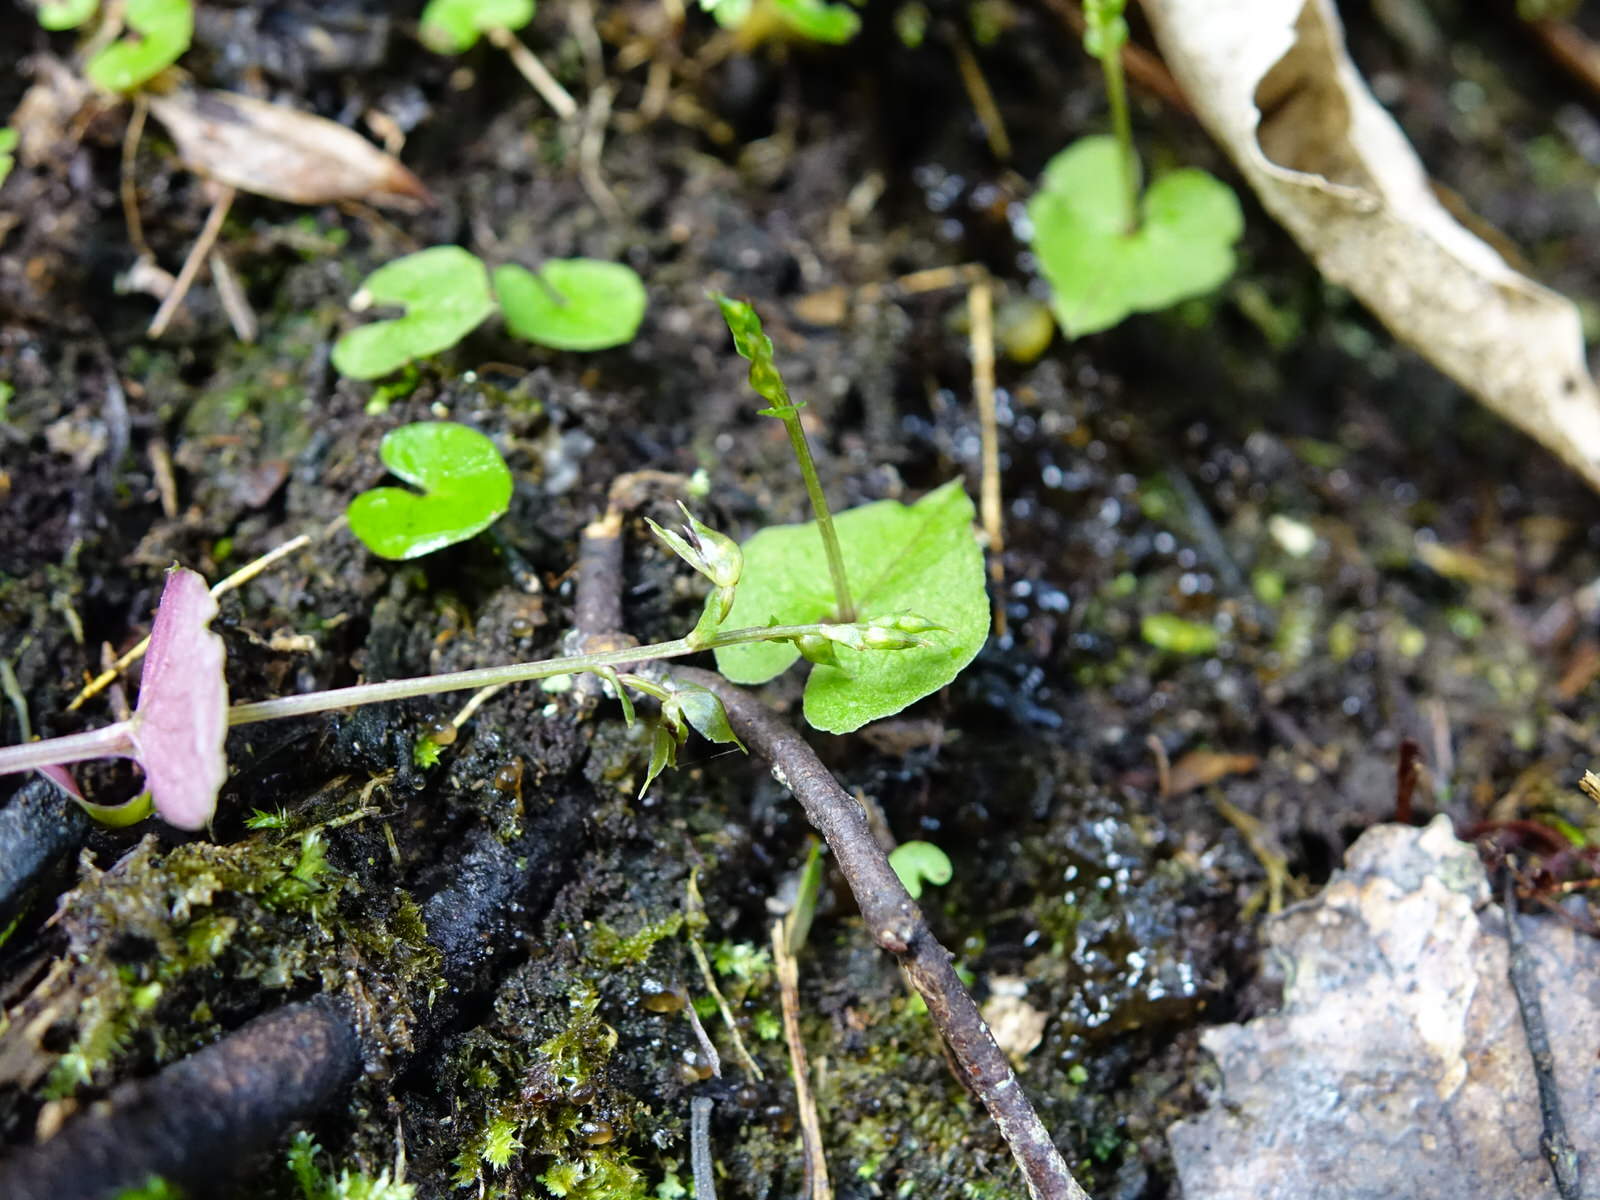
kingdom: Plantae
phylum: Tracheophyta
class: Liliopsida
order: Asparagales
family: Orchidaceae
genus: Acianthus
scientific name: Acianthus sinclairii
